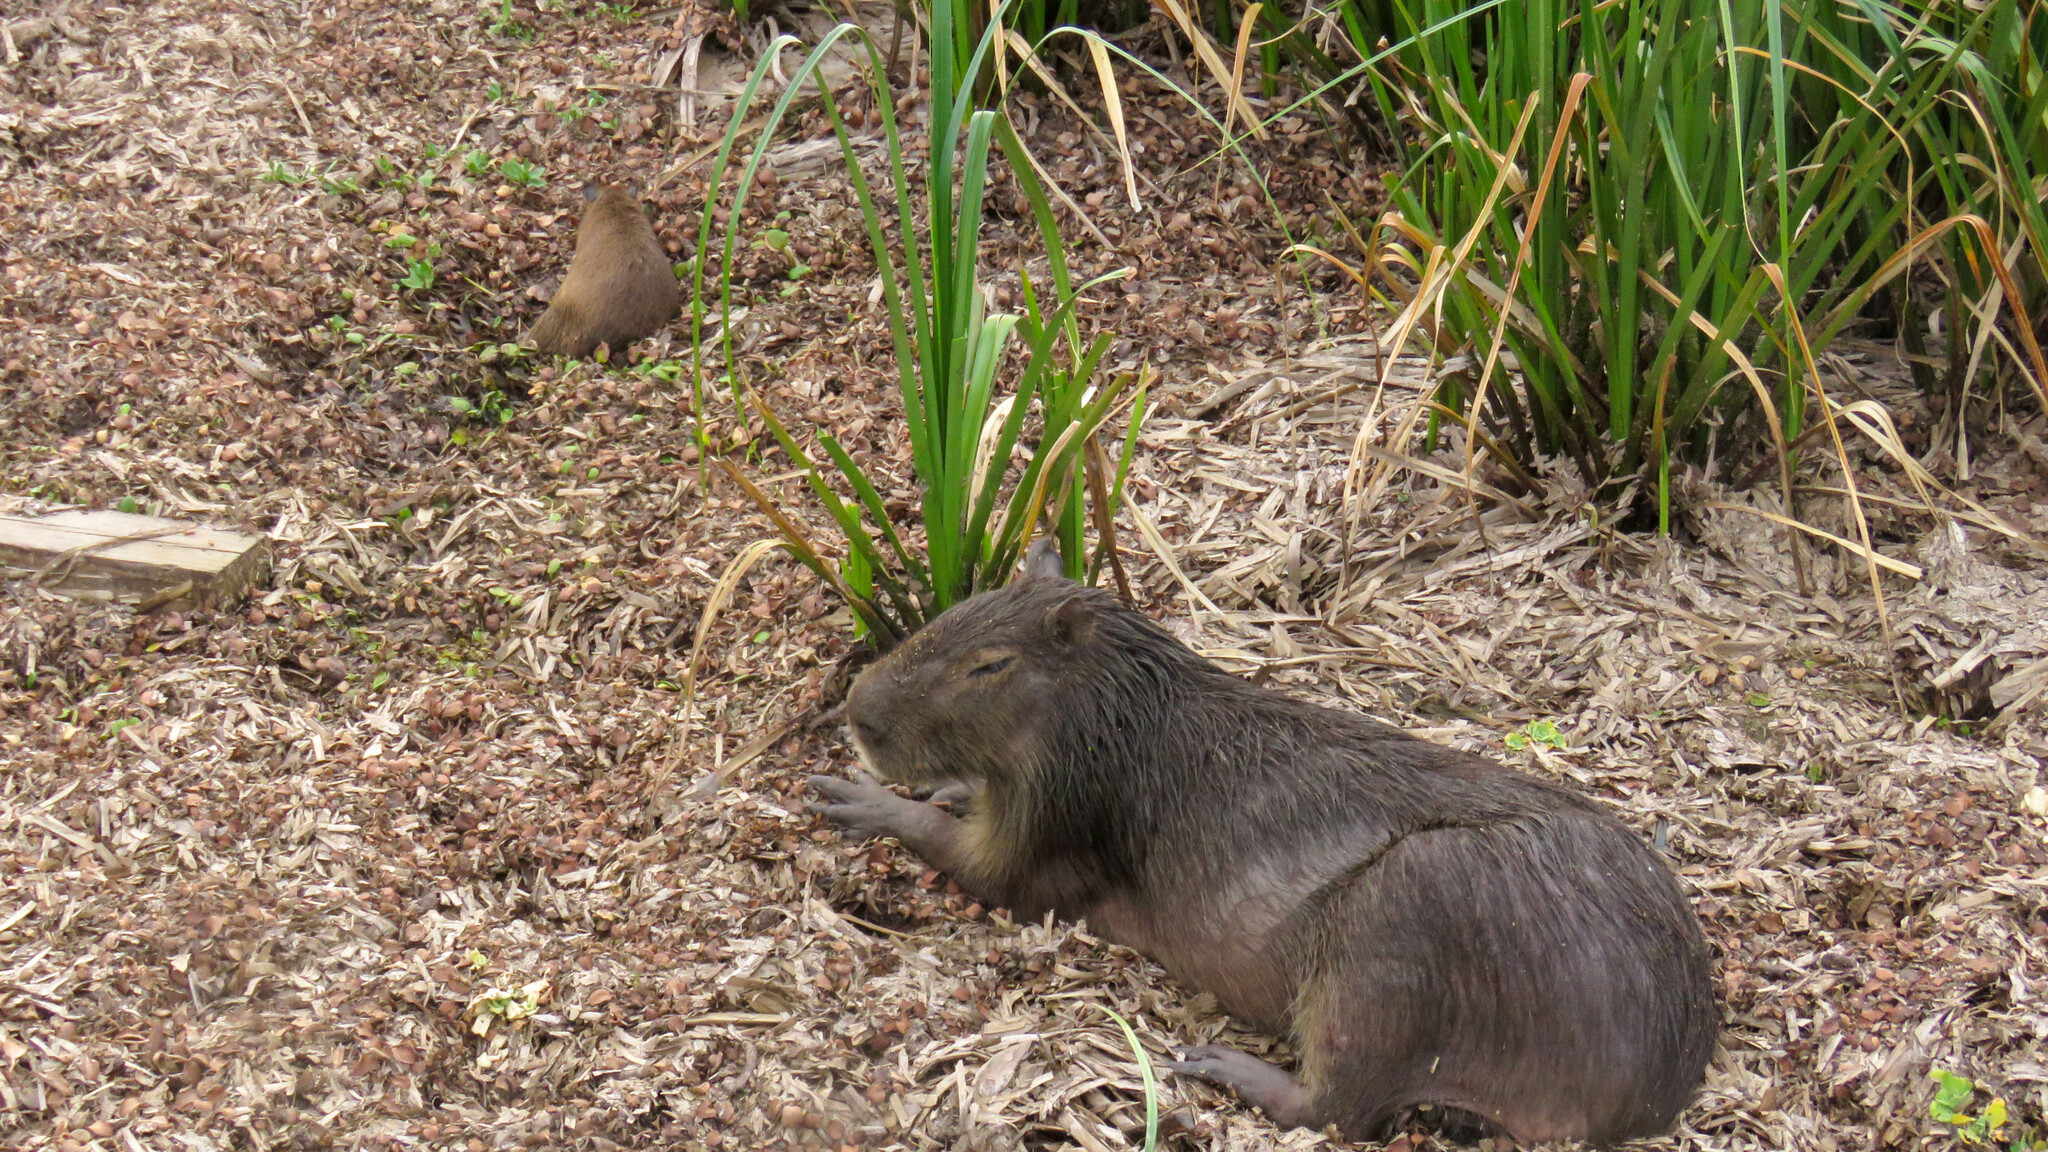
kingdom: Animalia
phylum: Chordata
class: Mammalia
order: Rodentia
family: Caviidae
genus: Hydrochoerus
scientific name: Hydrochoerus hydrochaeris
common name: Capybara
